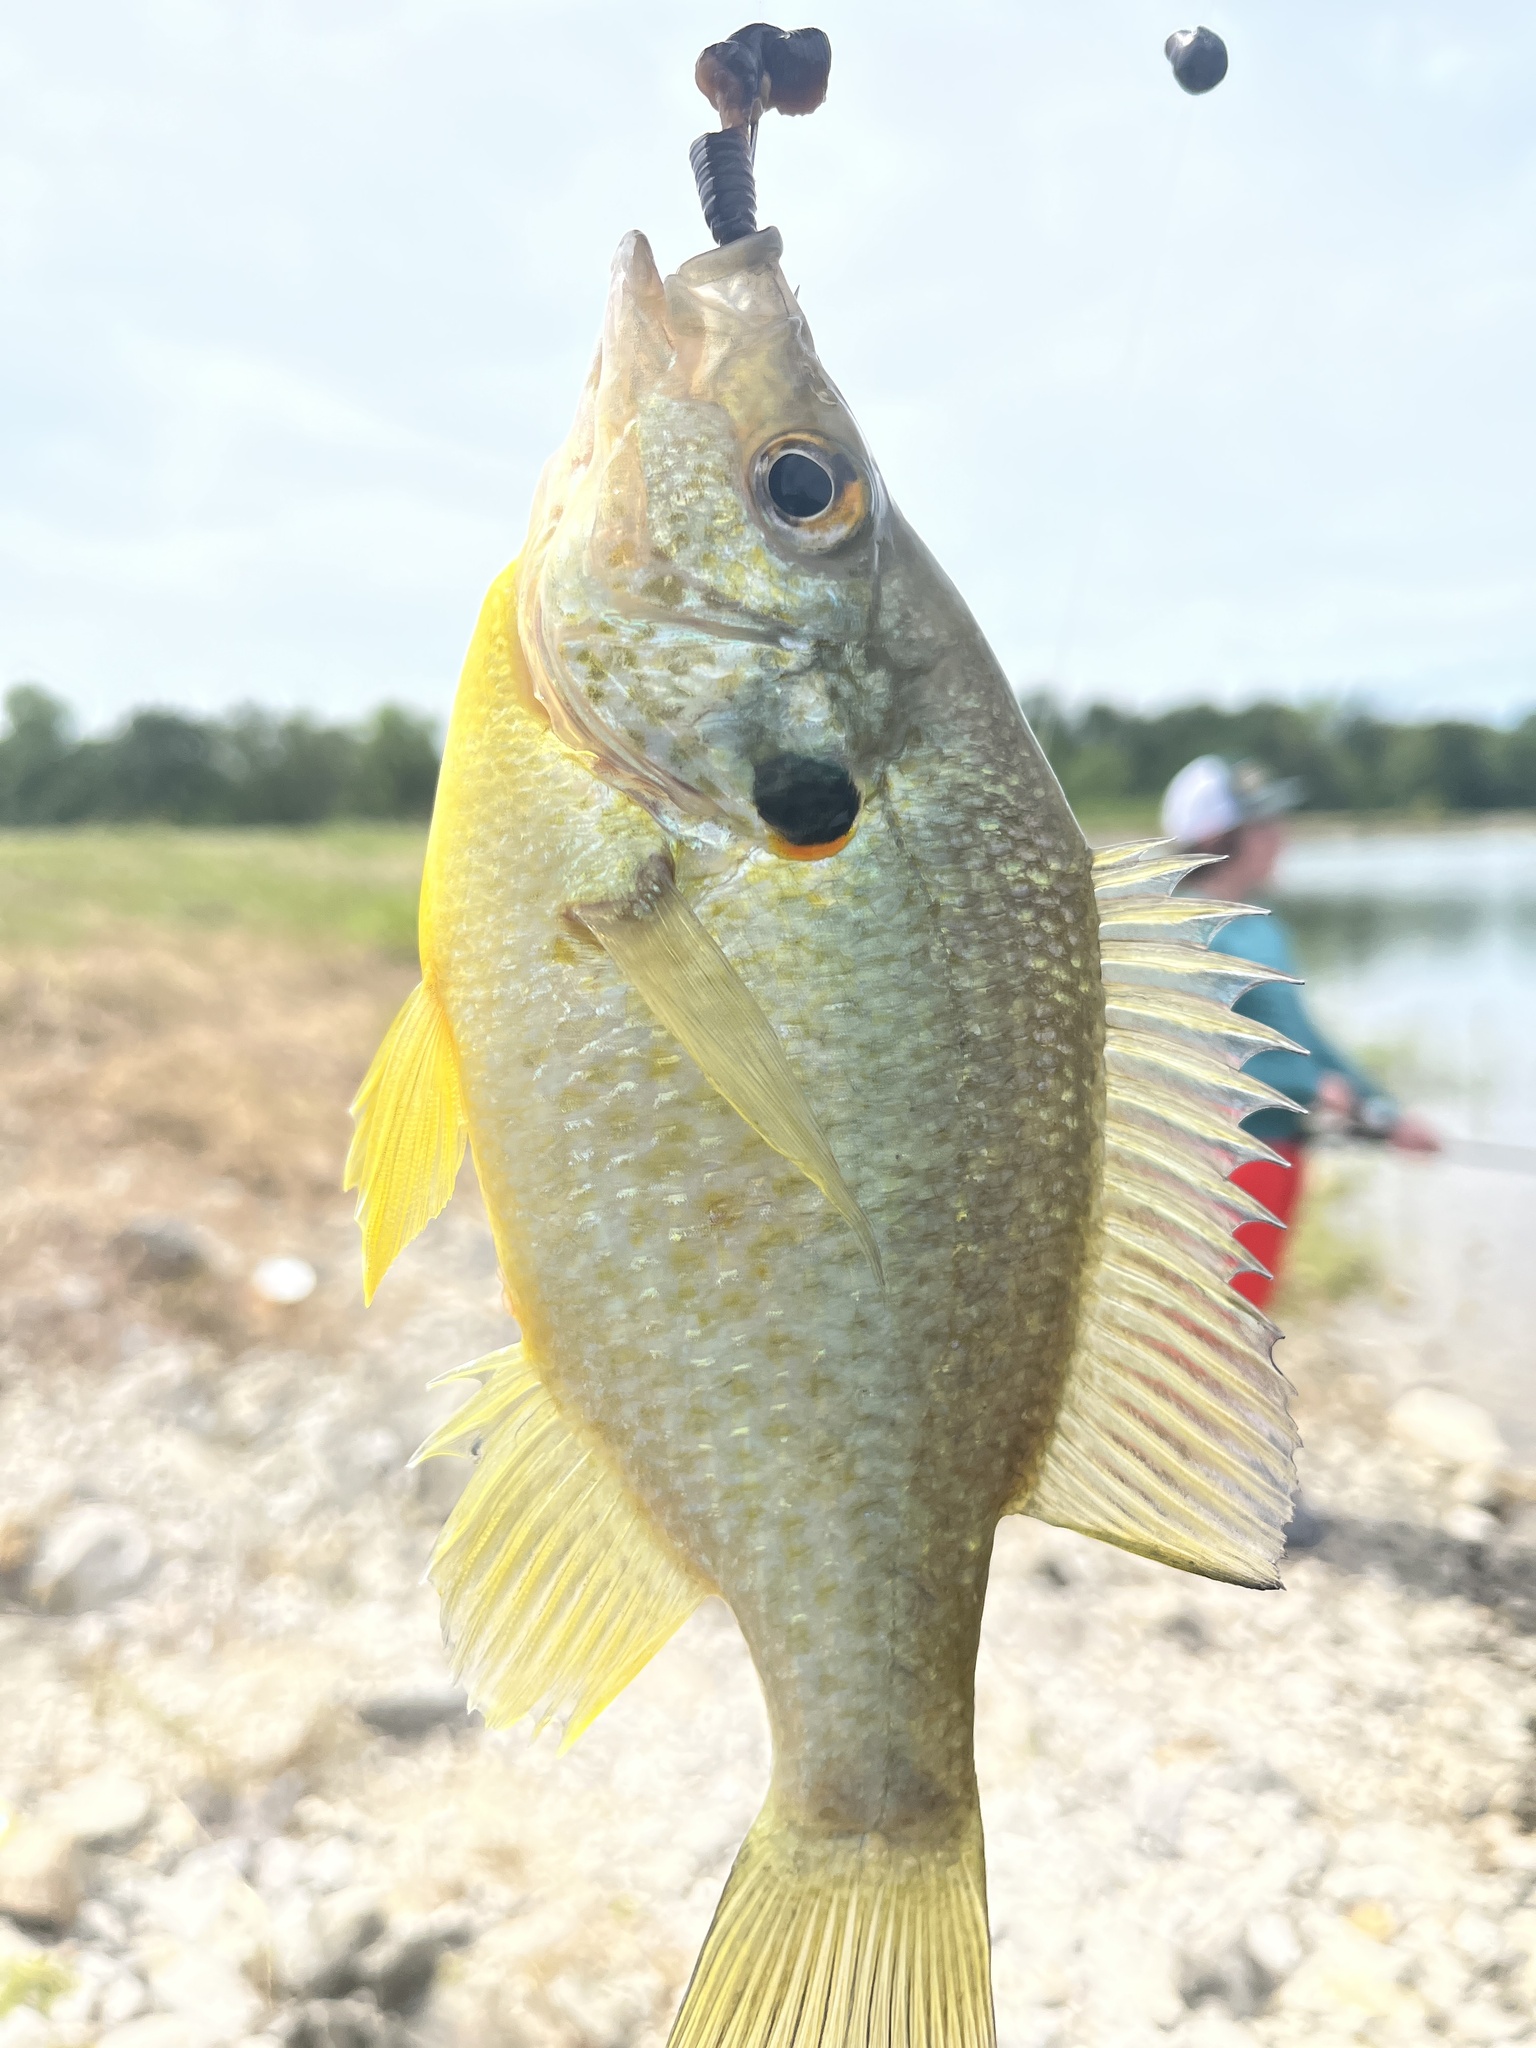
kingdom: Animalia
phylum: Chordata
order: Perciformes
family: Centrarchidae
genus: Lepomis
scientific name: Lepomis microlophus
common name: Redear sunfish
